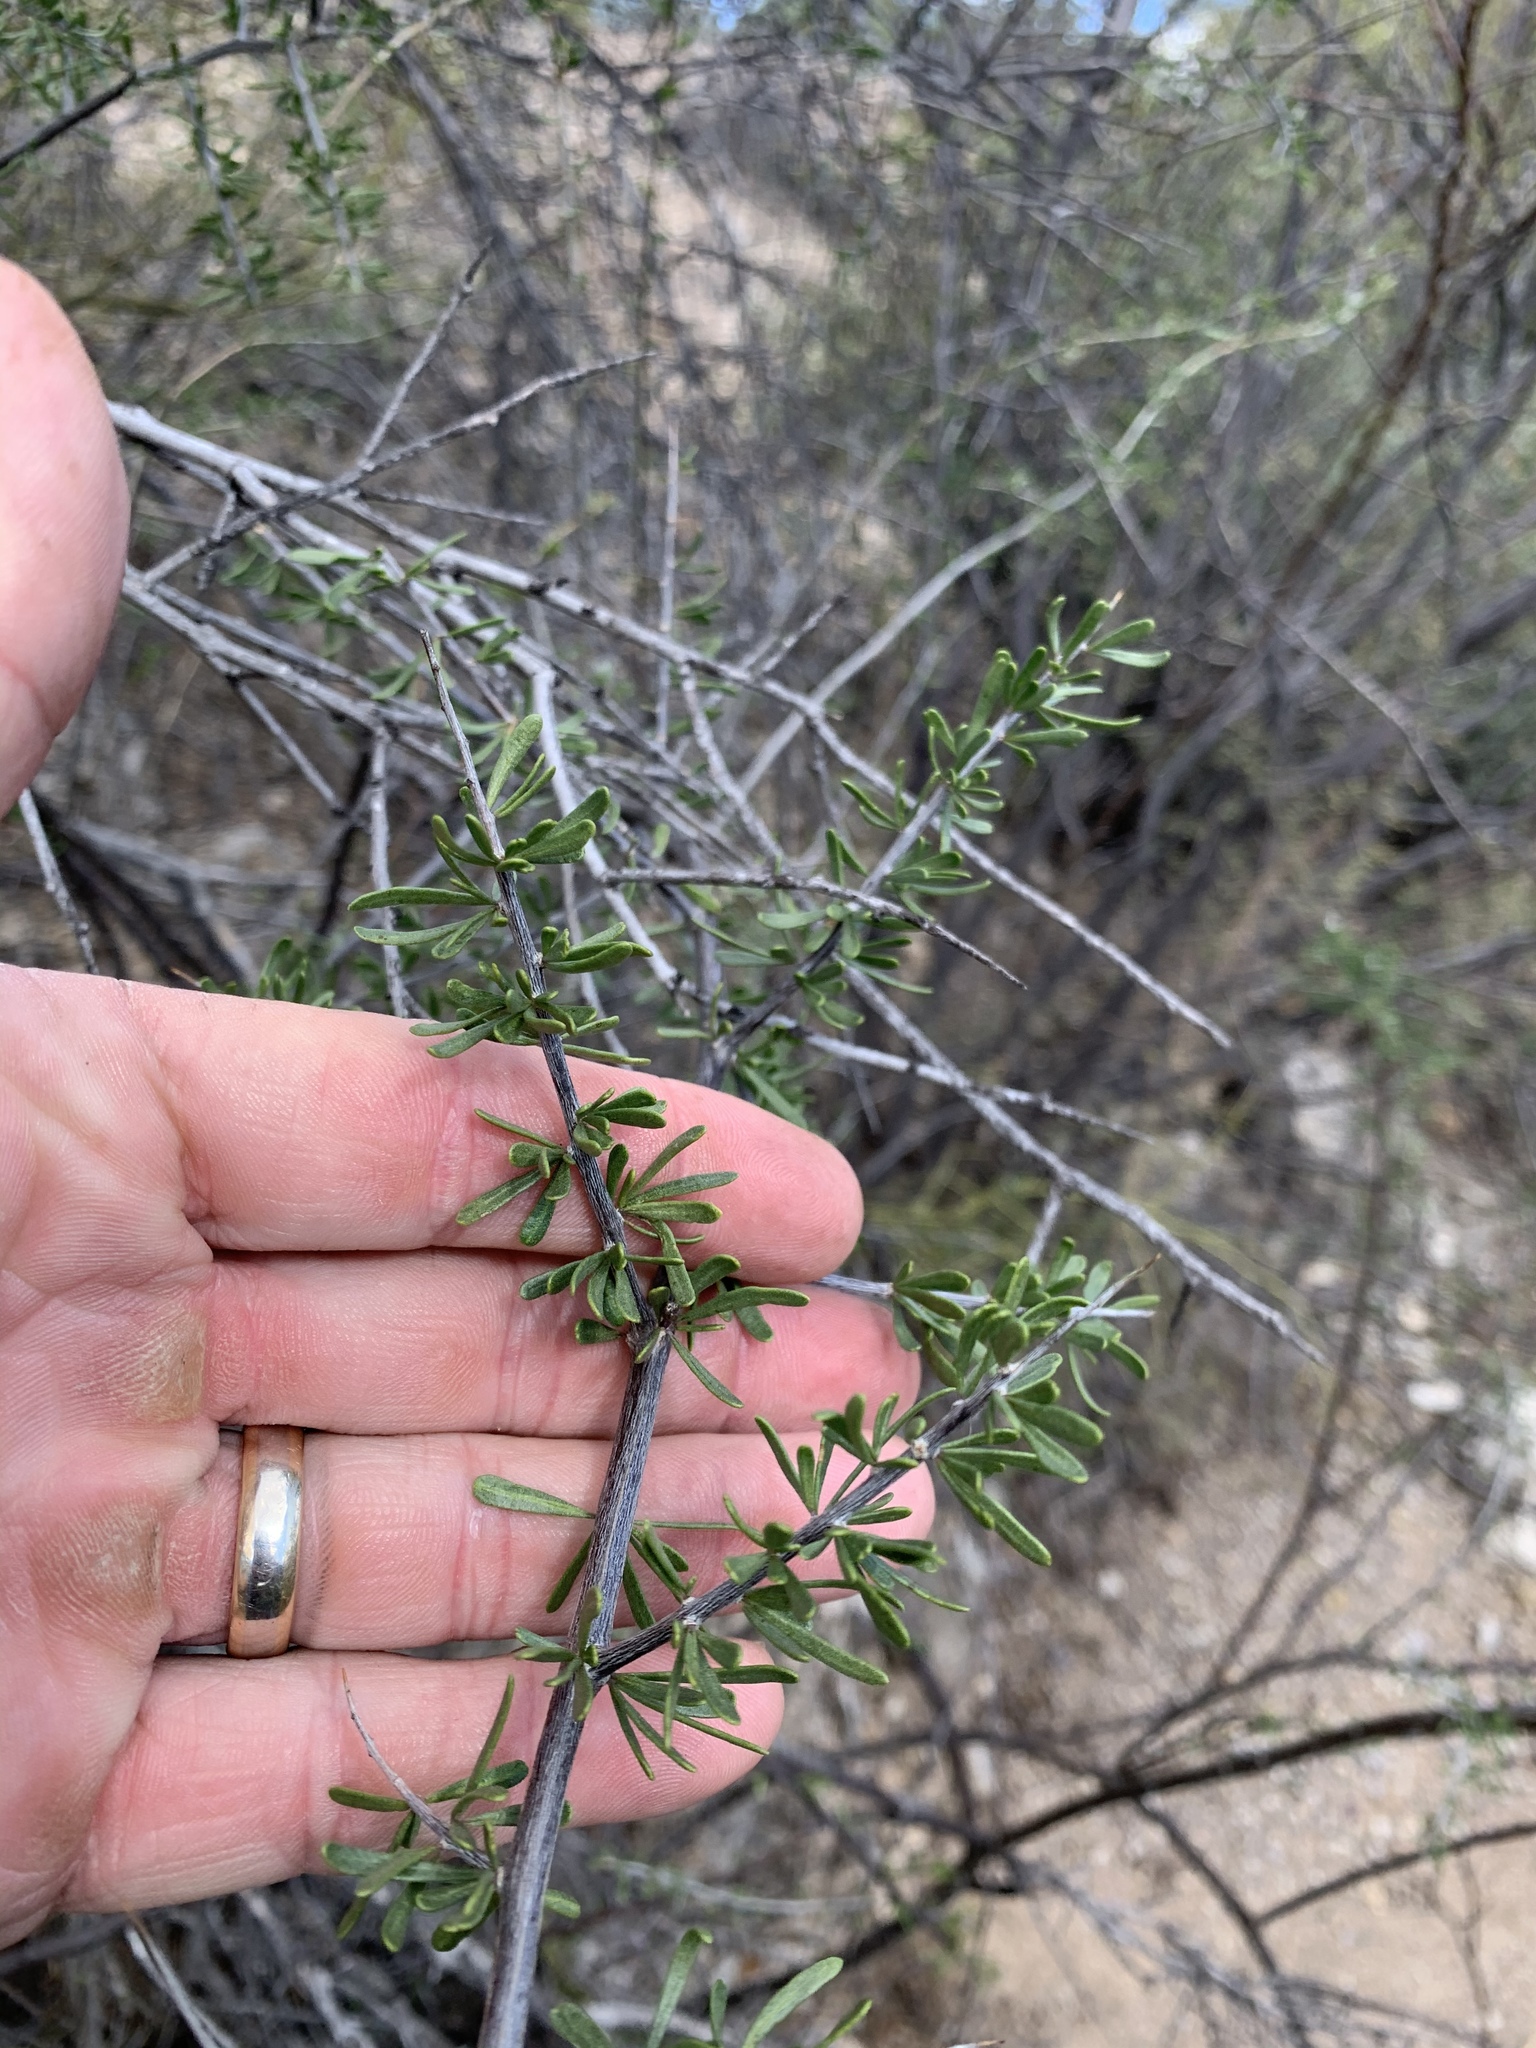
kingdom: Plantae
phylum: Tracheophyta
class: Magnoliopsida
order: Solanales
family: Solanaceae
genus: Lycium
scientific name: Lycium berlandieri
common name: Berlandier wolfberry
